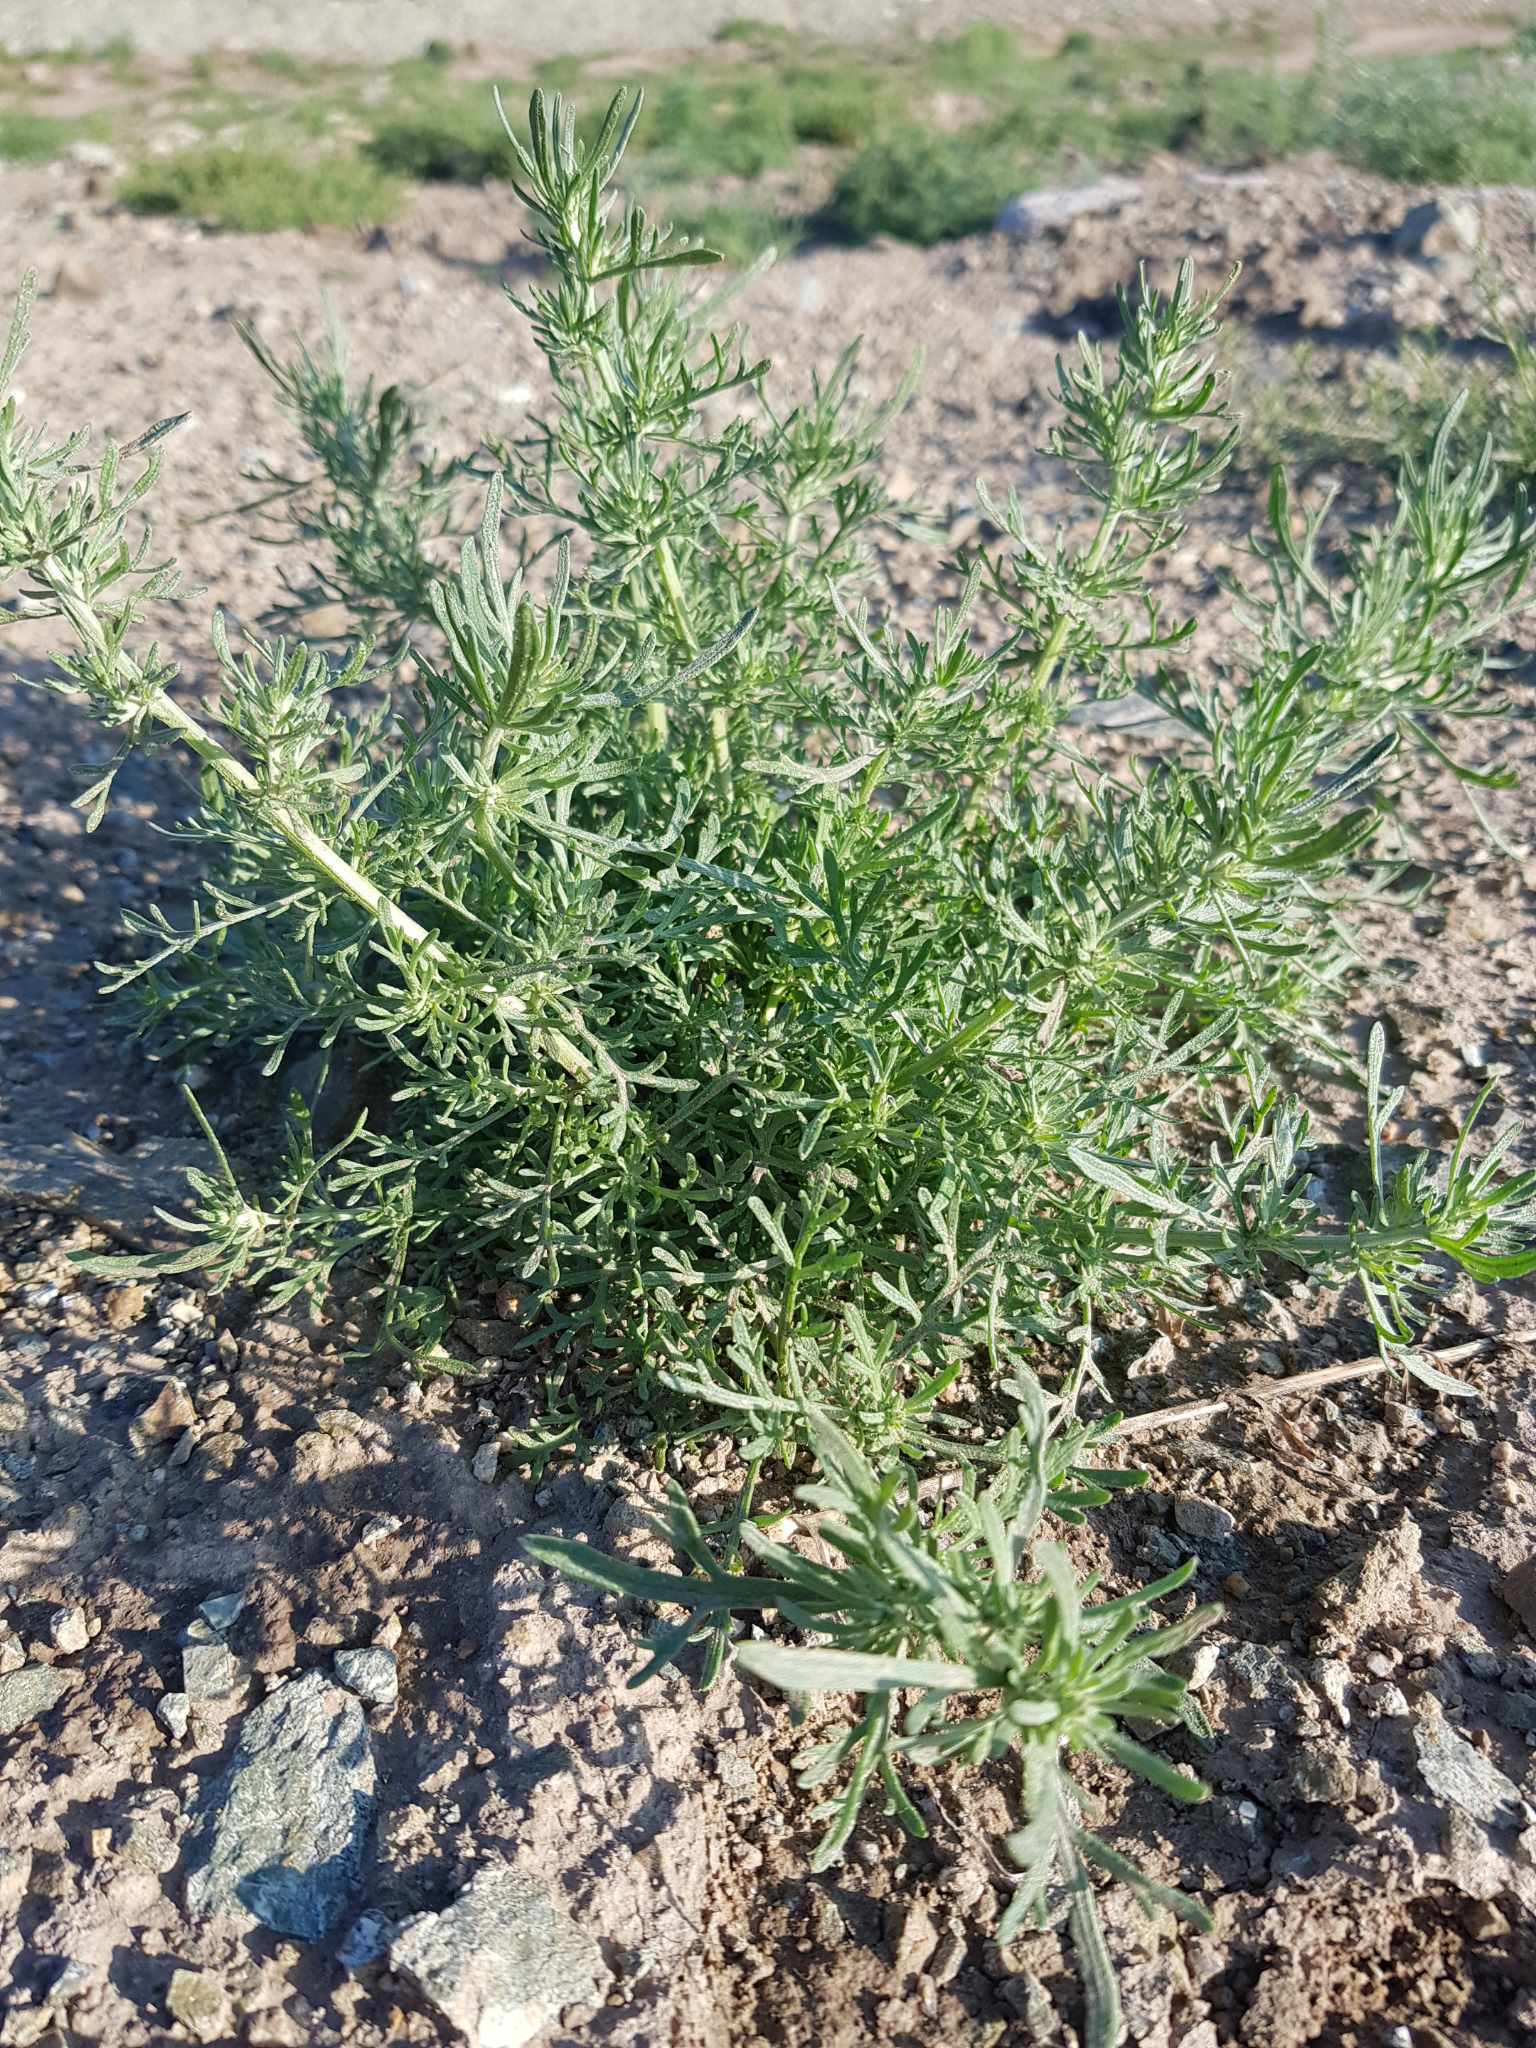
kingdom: Plantae
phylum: Tracheophyta
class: Magnoliopsida
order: Asterales
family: Asteraceae
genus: Artemisia
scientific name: Artemisia sieversiana
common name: Sieversian wormwood
